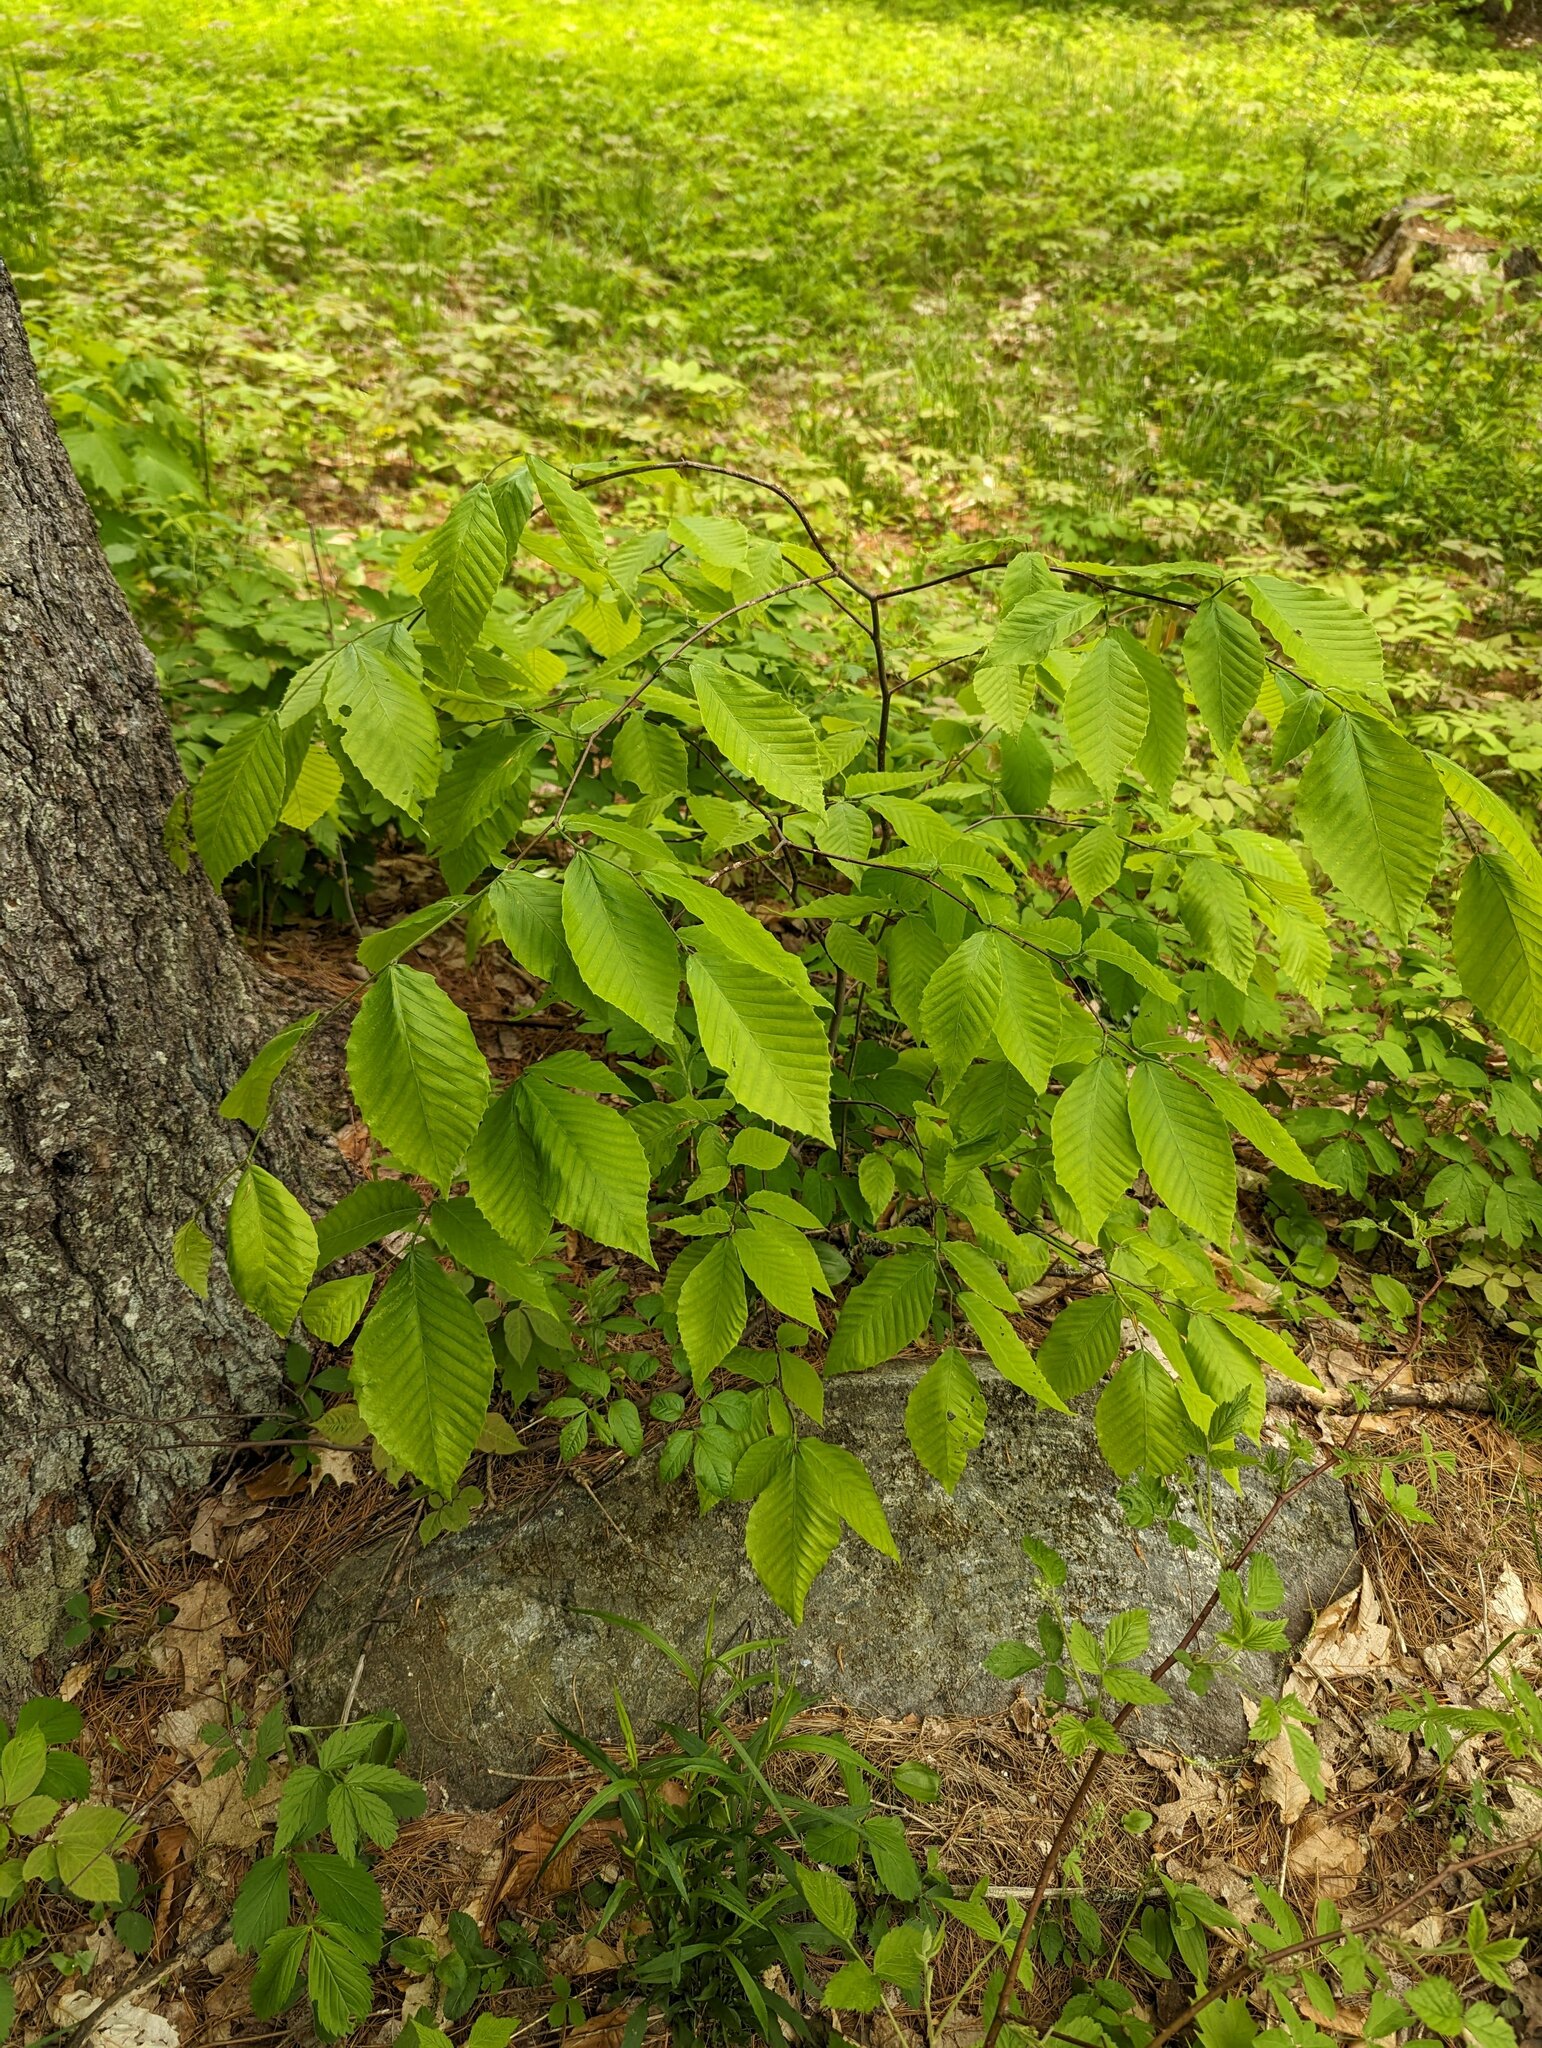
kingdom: Plantae
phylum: Tracheophyta
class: Magnoliopsida
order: Fagales
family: Fagaceae
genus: Fagus
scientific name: Fagus grandifolia
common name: American beech
